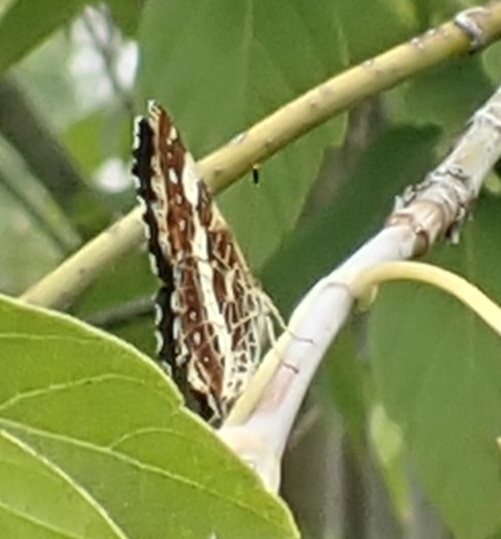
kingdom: Animalia
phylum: Arthropoda
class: Insecta
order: Lepidoptera
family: Nymphalidae
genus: Araschnia
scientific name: Araschnia levana
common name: Map butterfly
